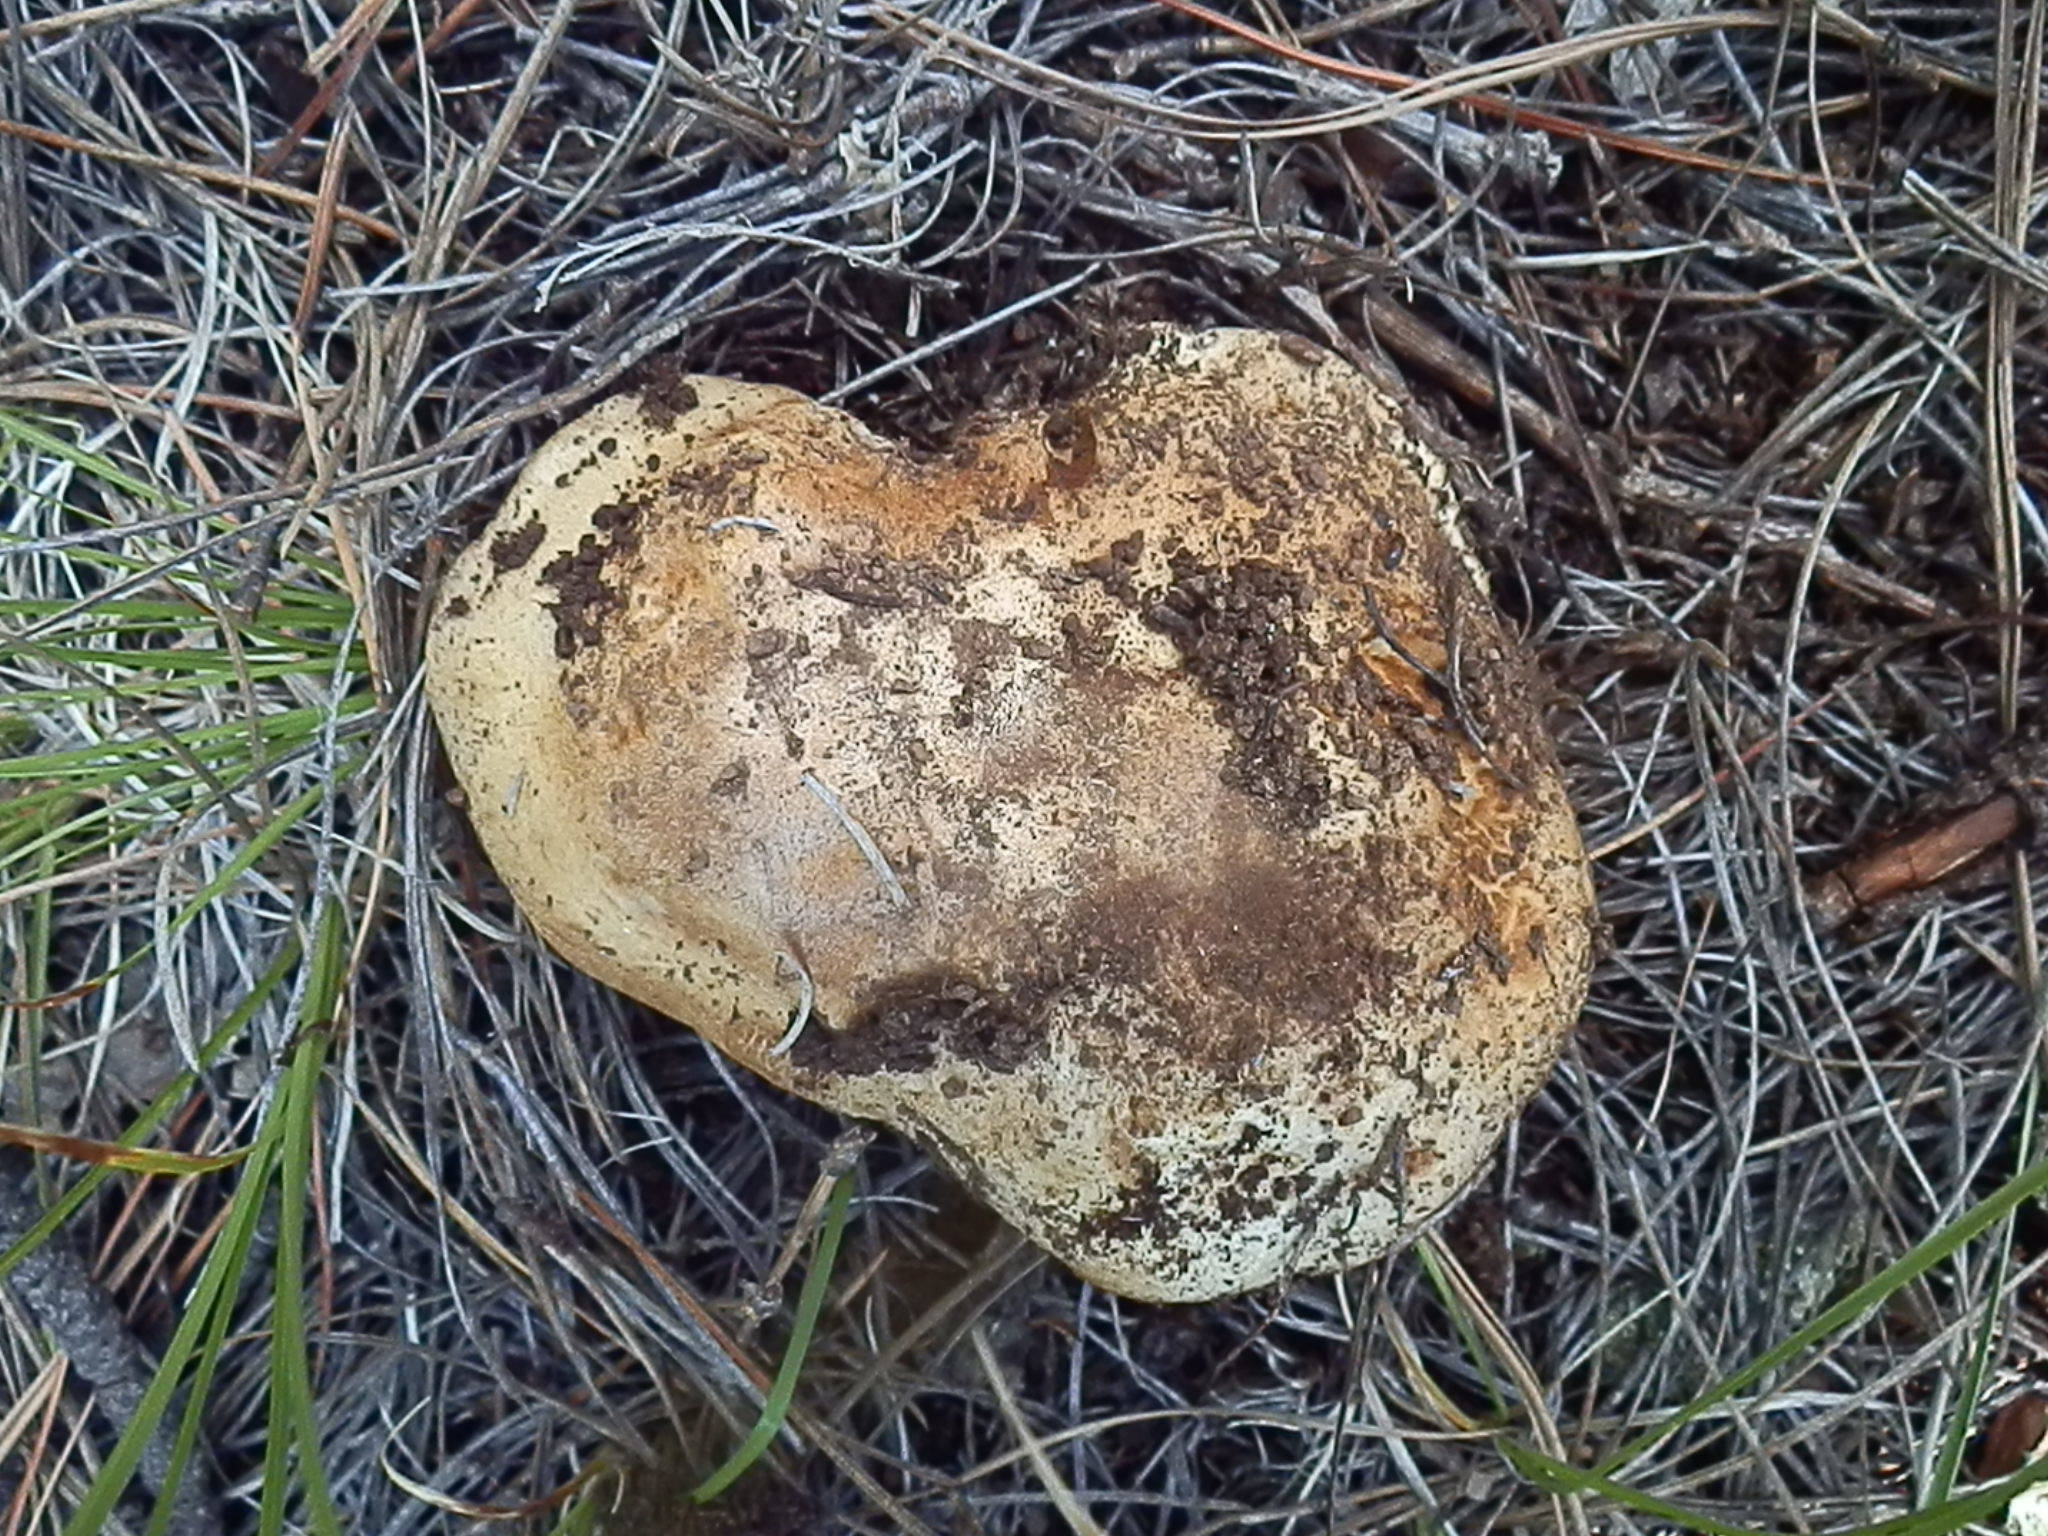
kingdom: Fungi
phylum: Basidiomycota
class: Agaricomycetes
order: Agaricales
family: Cortinariaceae
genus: Thaxterogaster
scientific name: Thaxterogaster fulvo-ochrascens
